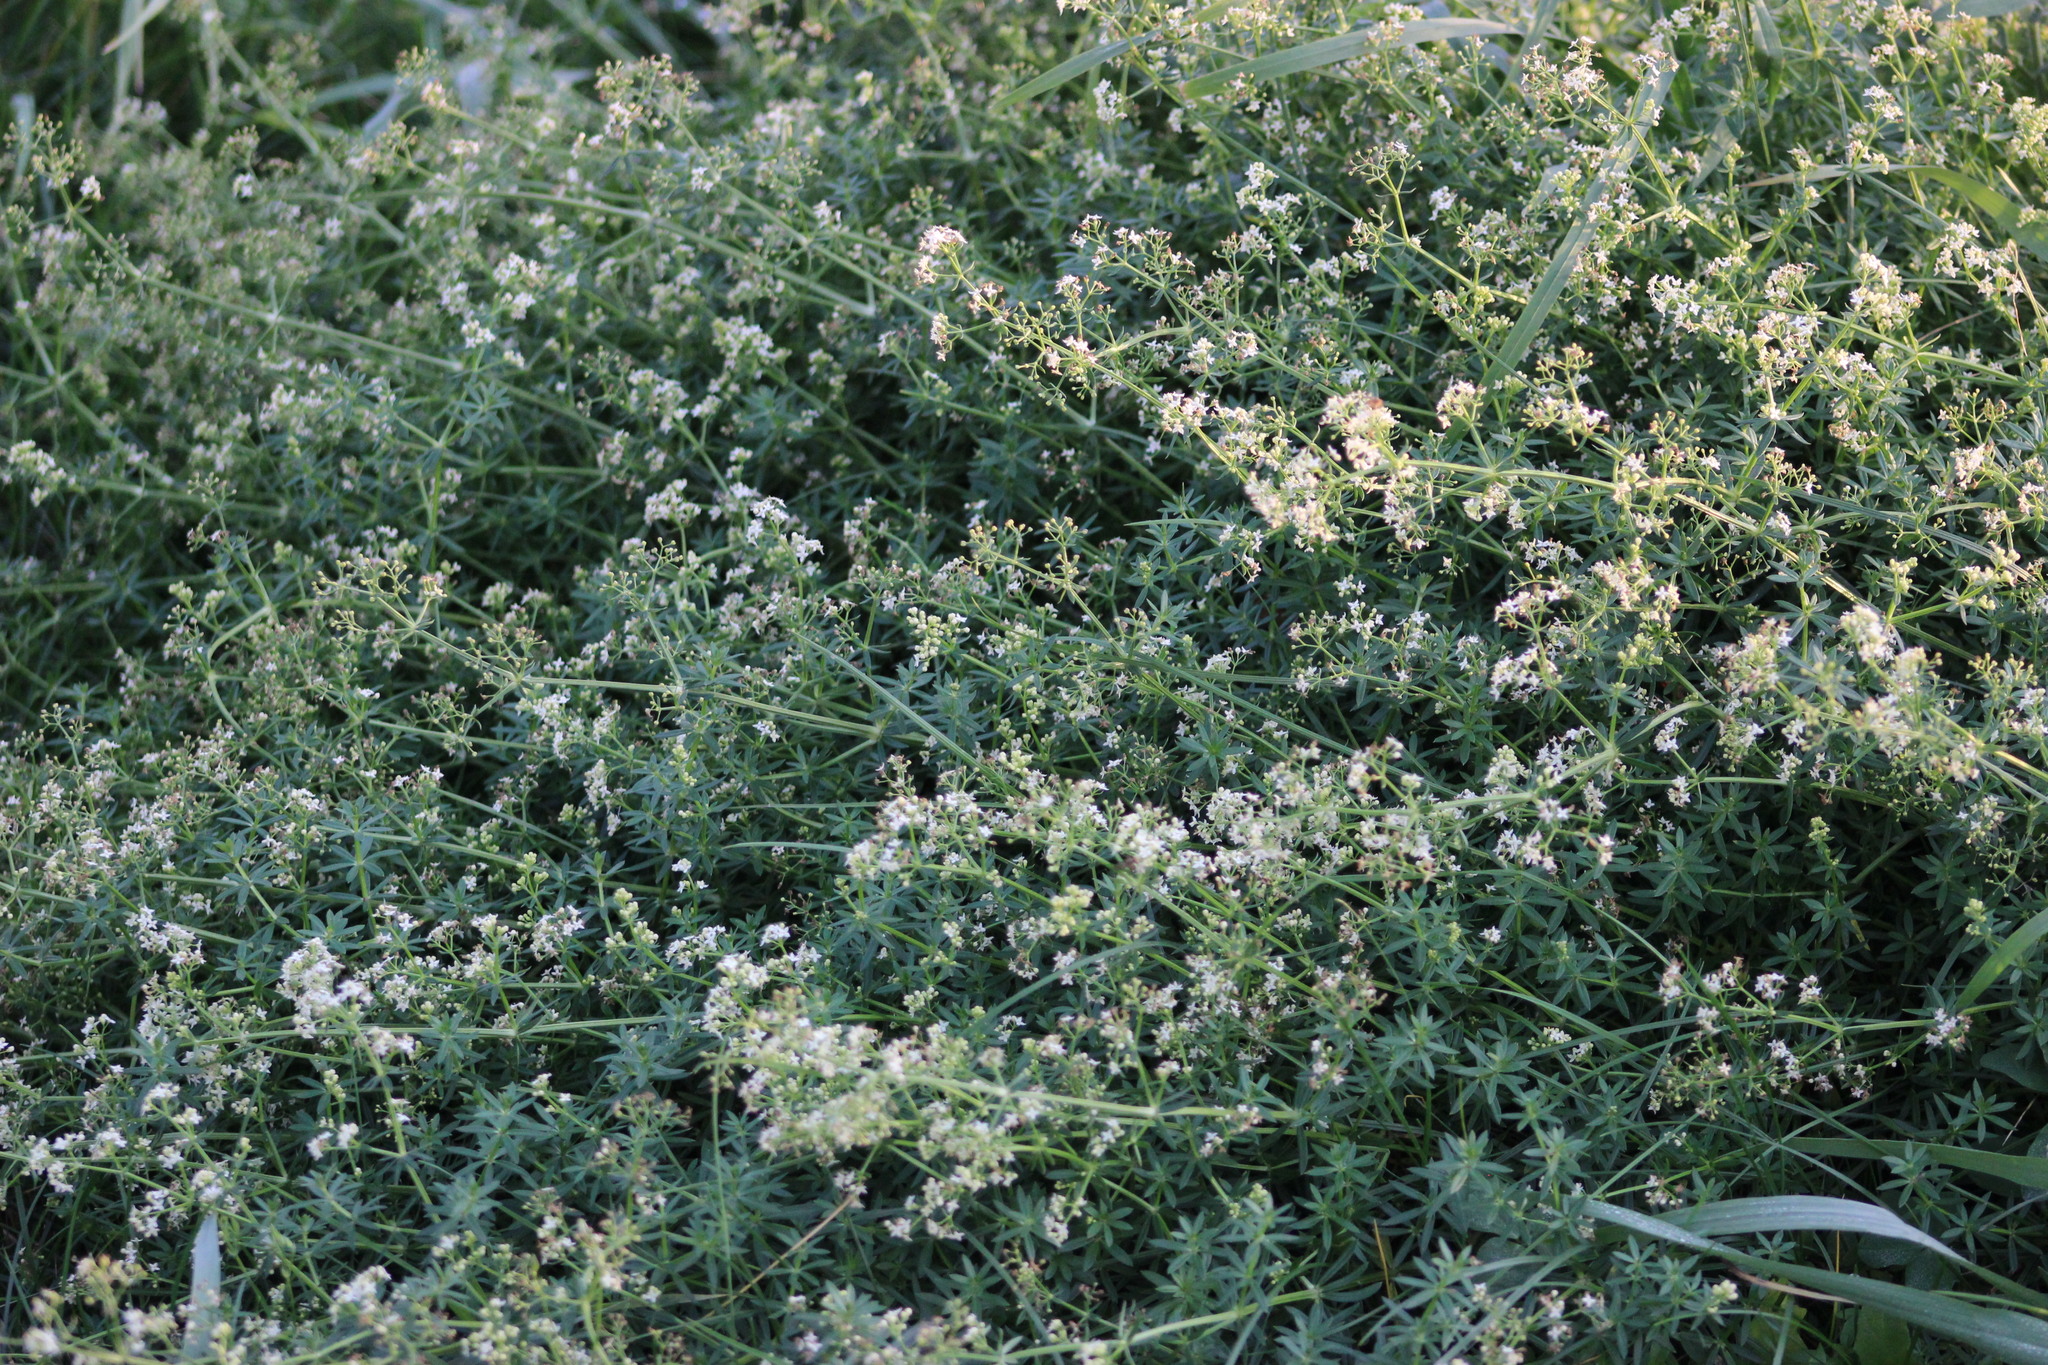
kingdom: Plantae
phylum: Tracheophyta
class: Magnoliopsida
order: Gentianales
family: Rubiaceae
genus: Galium
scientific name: Galium mollugo
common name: Hedge bedstraw
